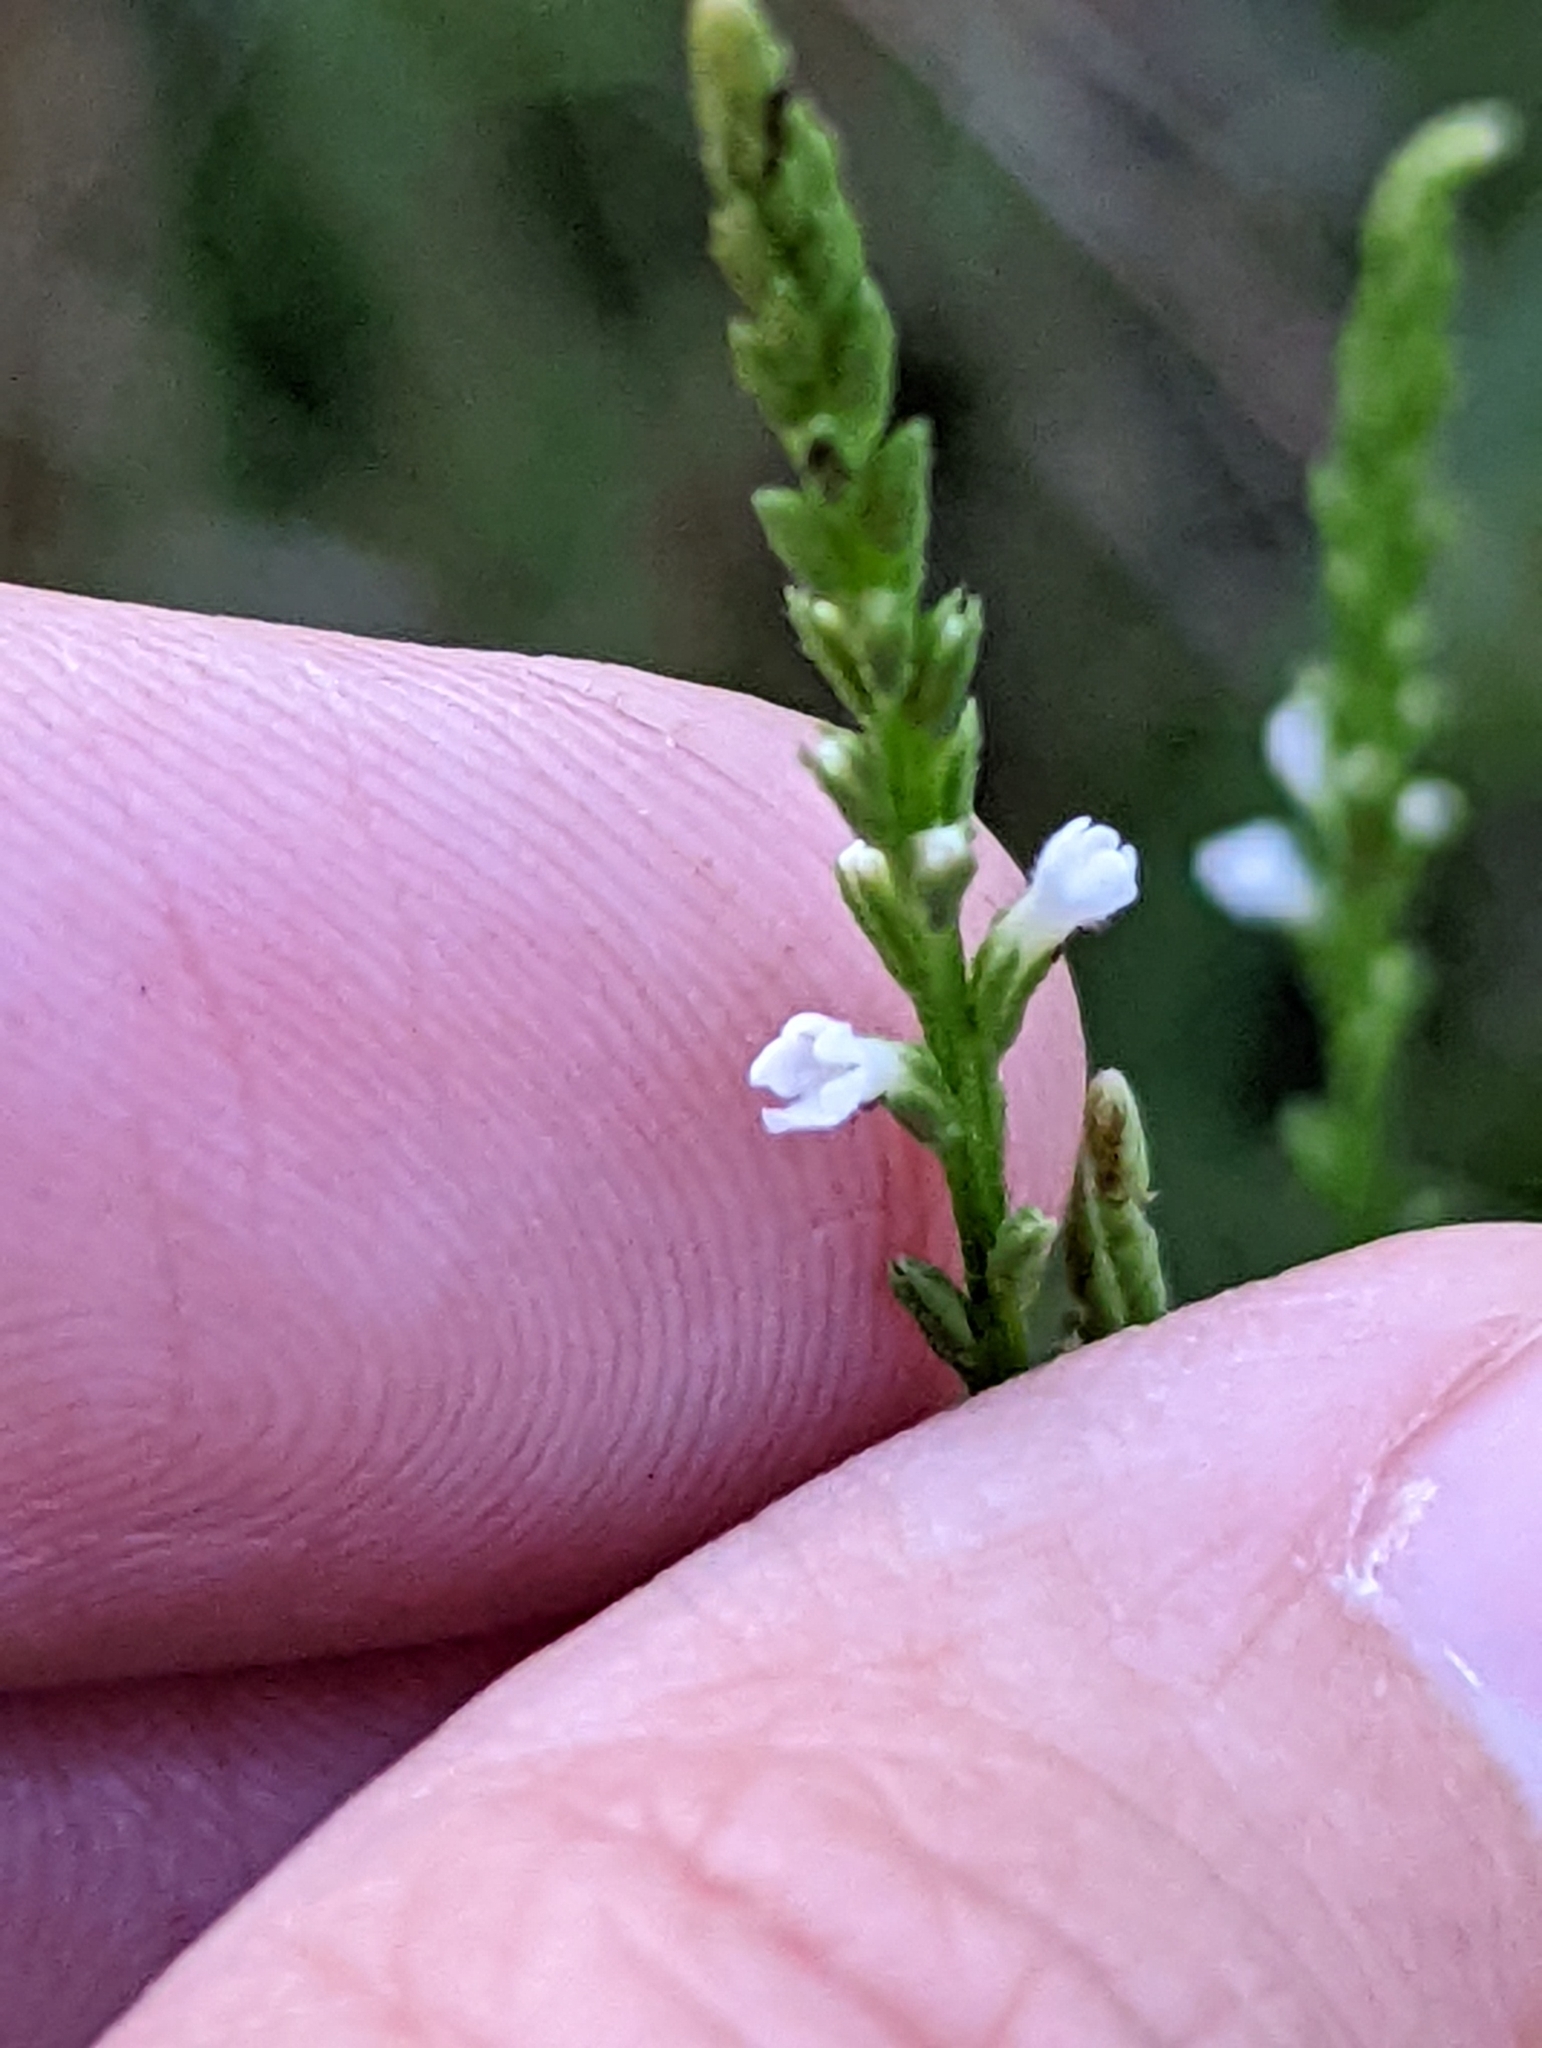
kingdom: Plantae
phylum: Tracheophyta
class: Magnoliopsida
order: Lamiales
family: Verbenaceae
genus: Verbena
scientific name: Verbena urticifolia
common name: Nettle-leaved vervain
